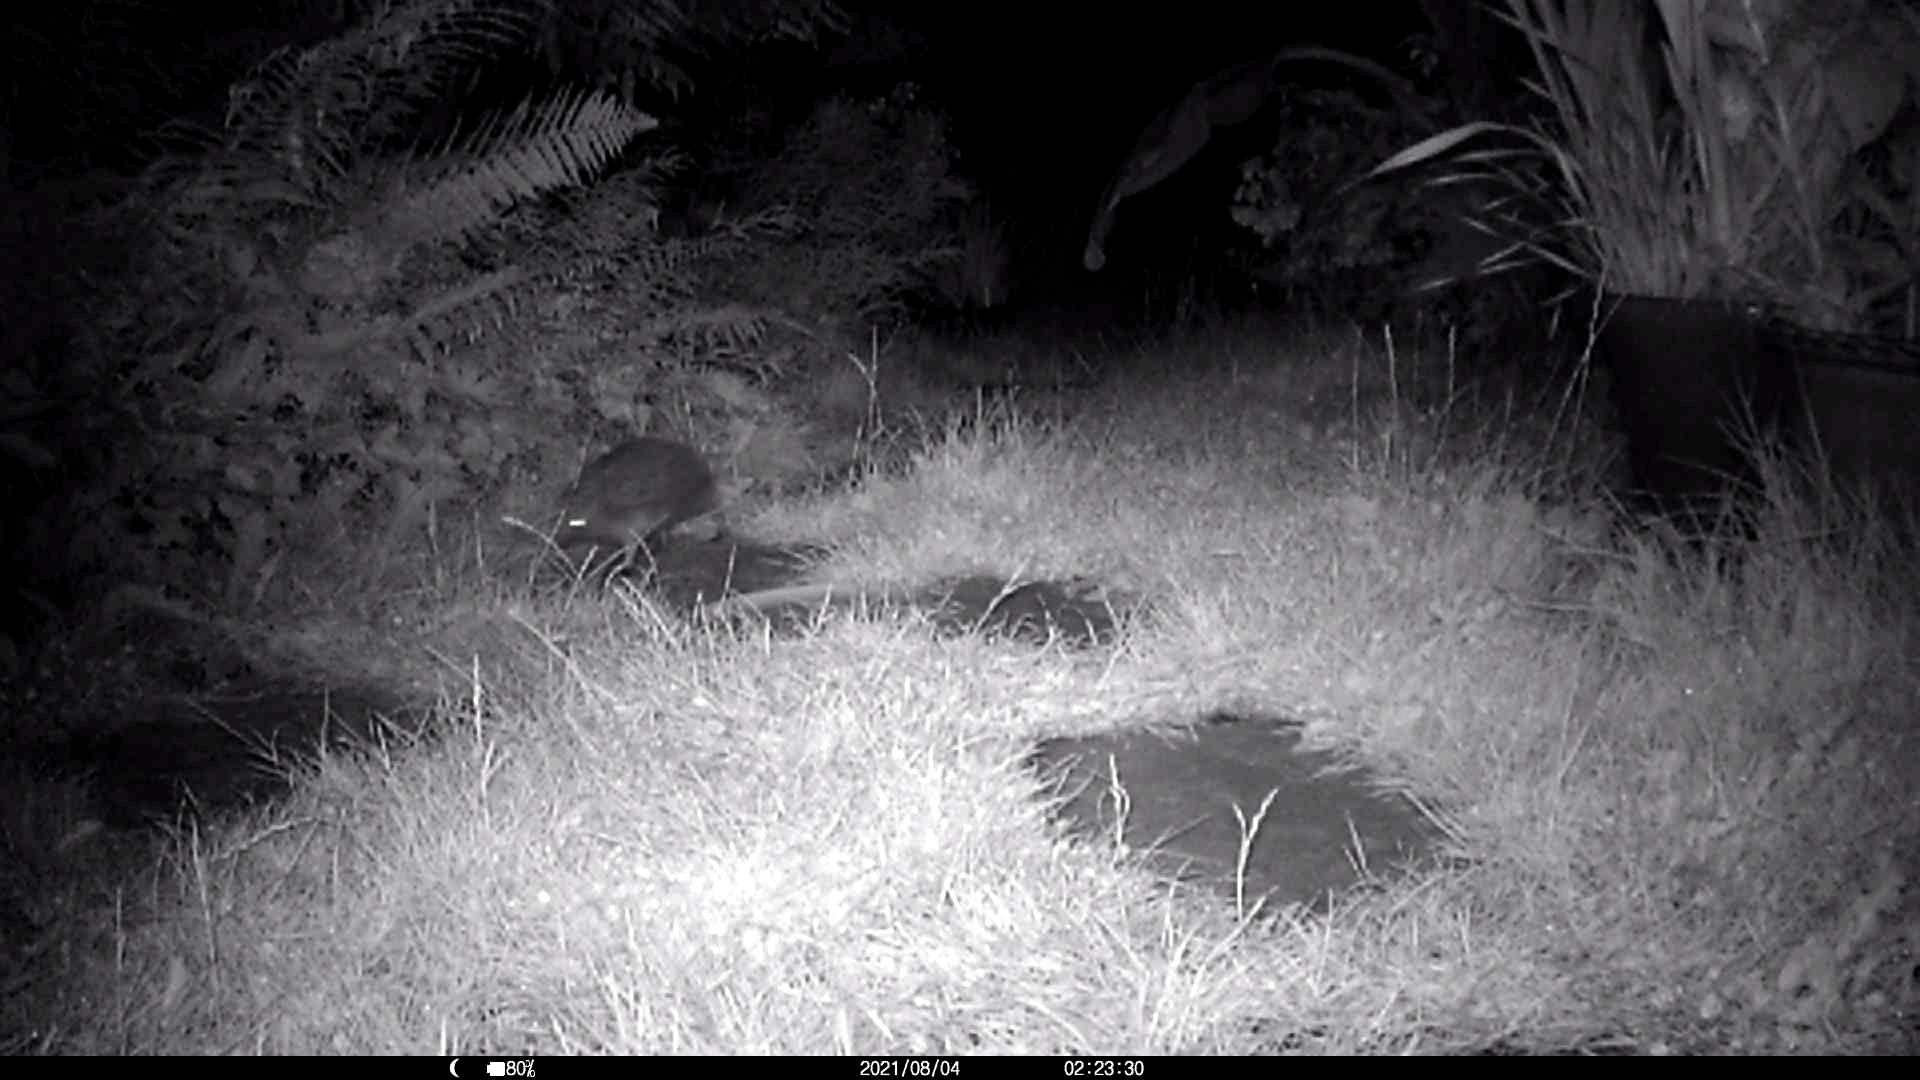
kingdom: Animalia
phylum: Chordata
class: Mammalia
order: Erinaceomorpha
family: Erinaceidae
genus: Erinaceus
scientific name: Erinaceus europaeus
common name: West european hedgehog
